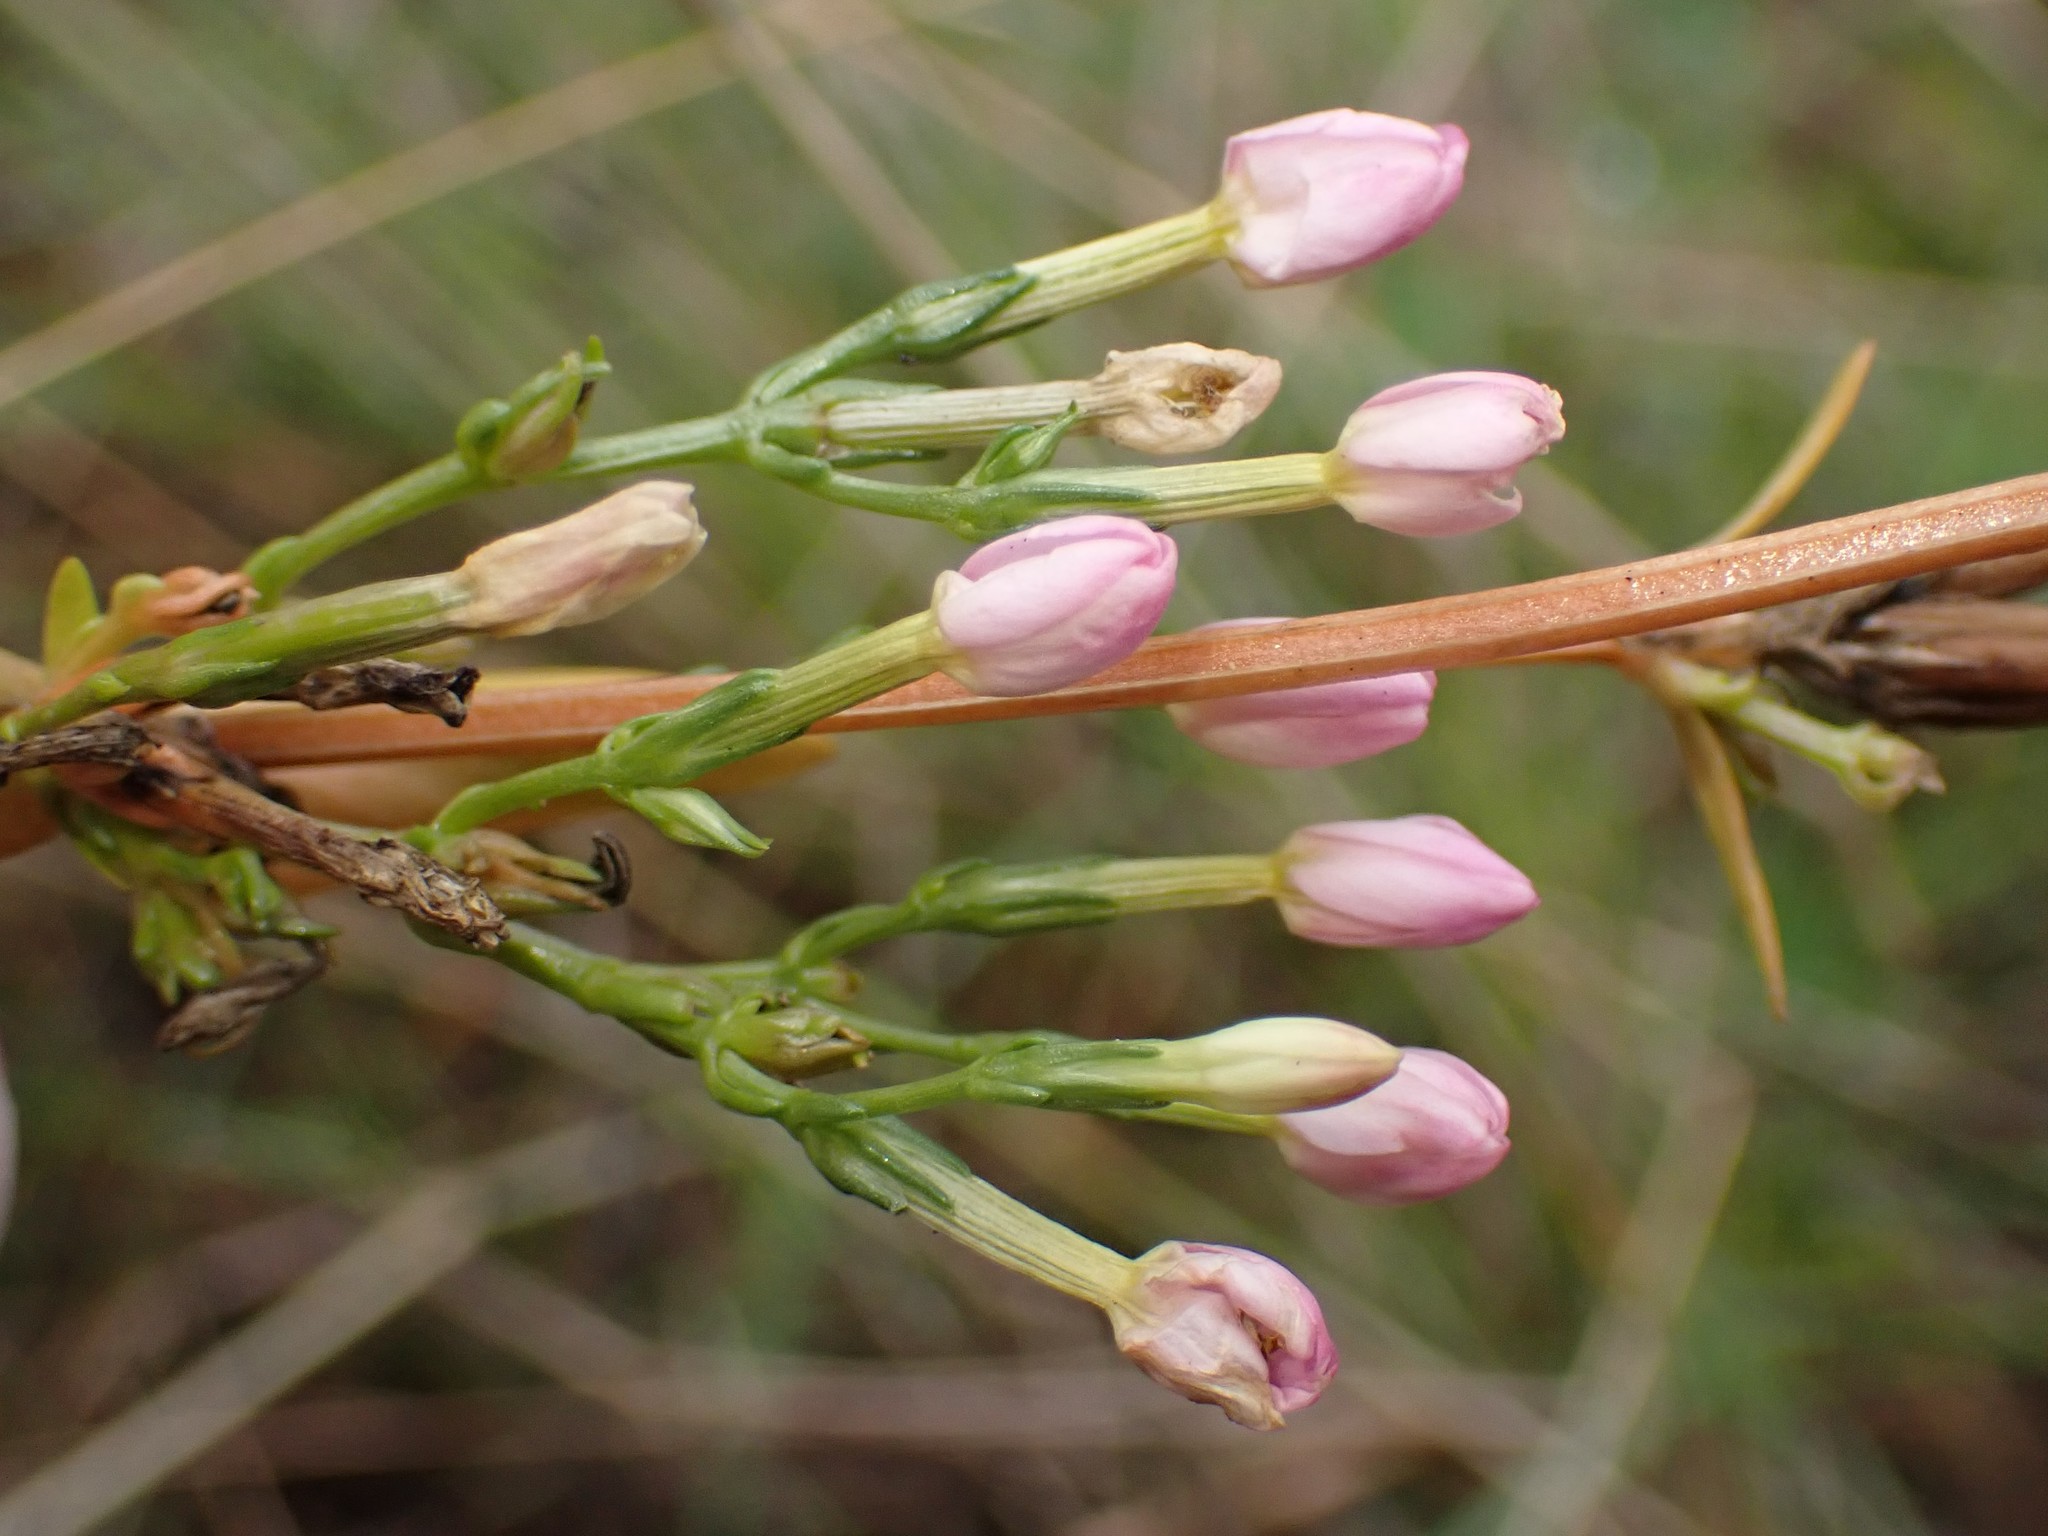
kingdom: Plantae
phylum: Tracheophyta
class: Magnoliopsida
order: Gentianales
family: Gentianaceae
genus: Centaurium
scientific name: Centaurium erythraea
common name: Common centaury
